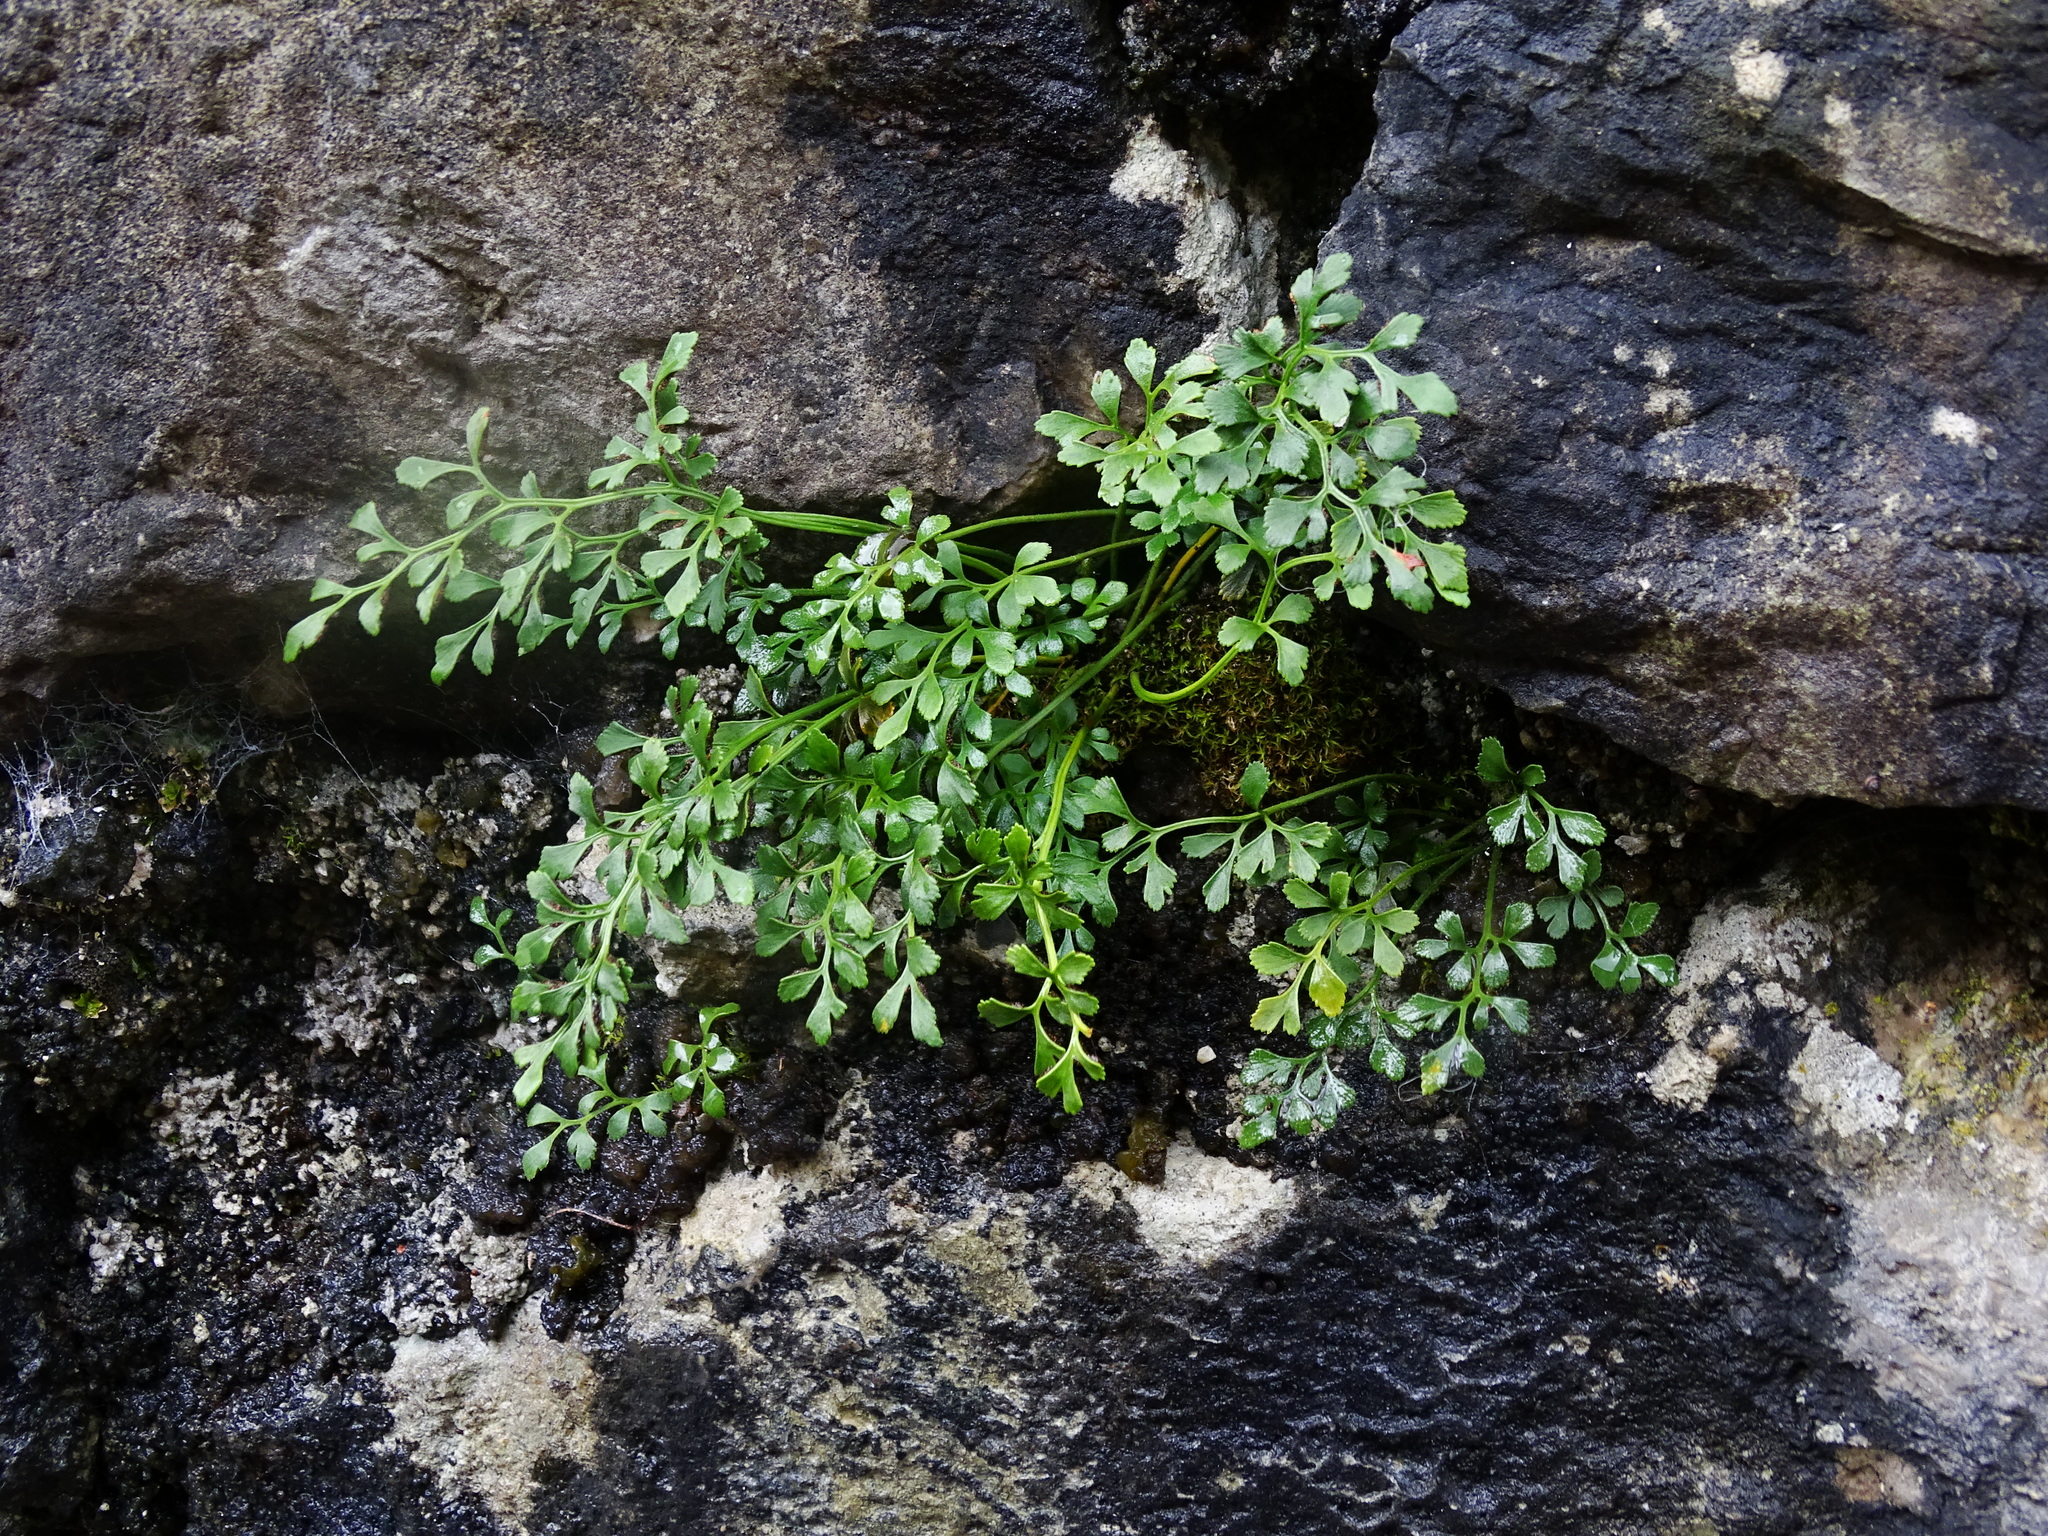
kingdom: Plantae
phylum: Tracheophyta
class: Polypodiopsida
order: Polypodiales
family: Aspleniaceae
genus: Asplenium
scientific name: Asplenium ruta-muraria
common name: Wall-rue
